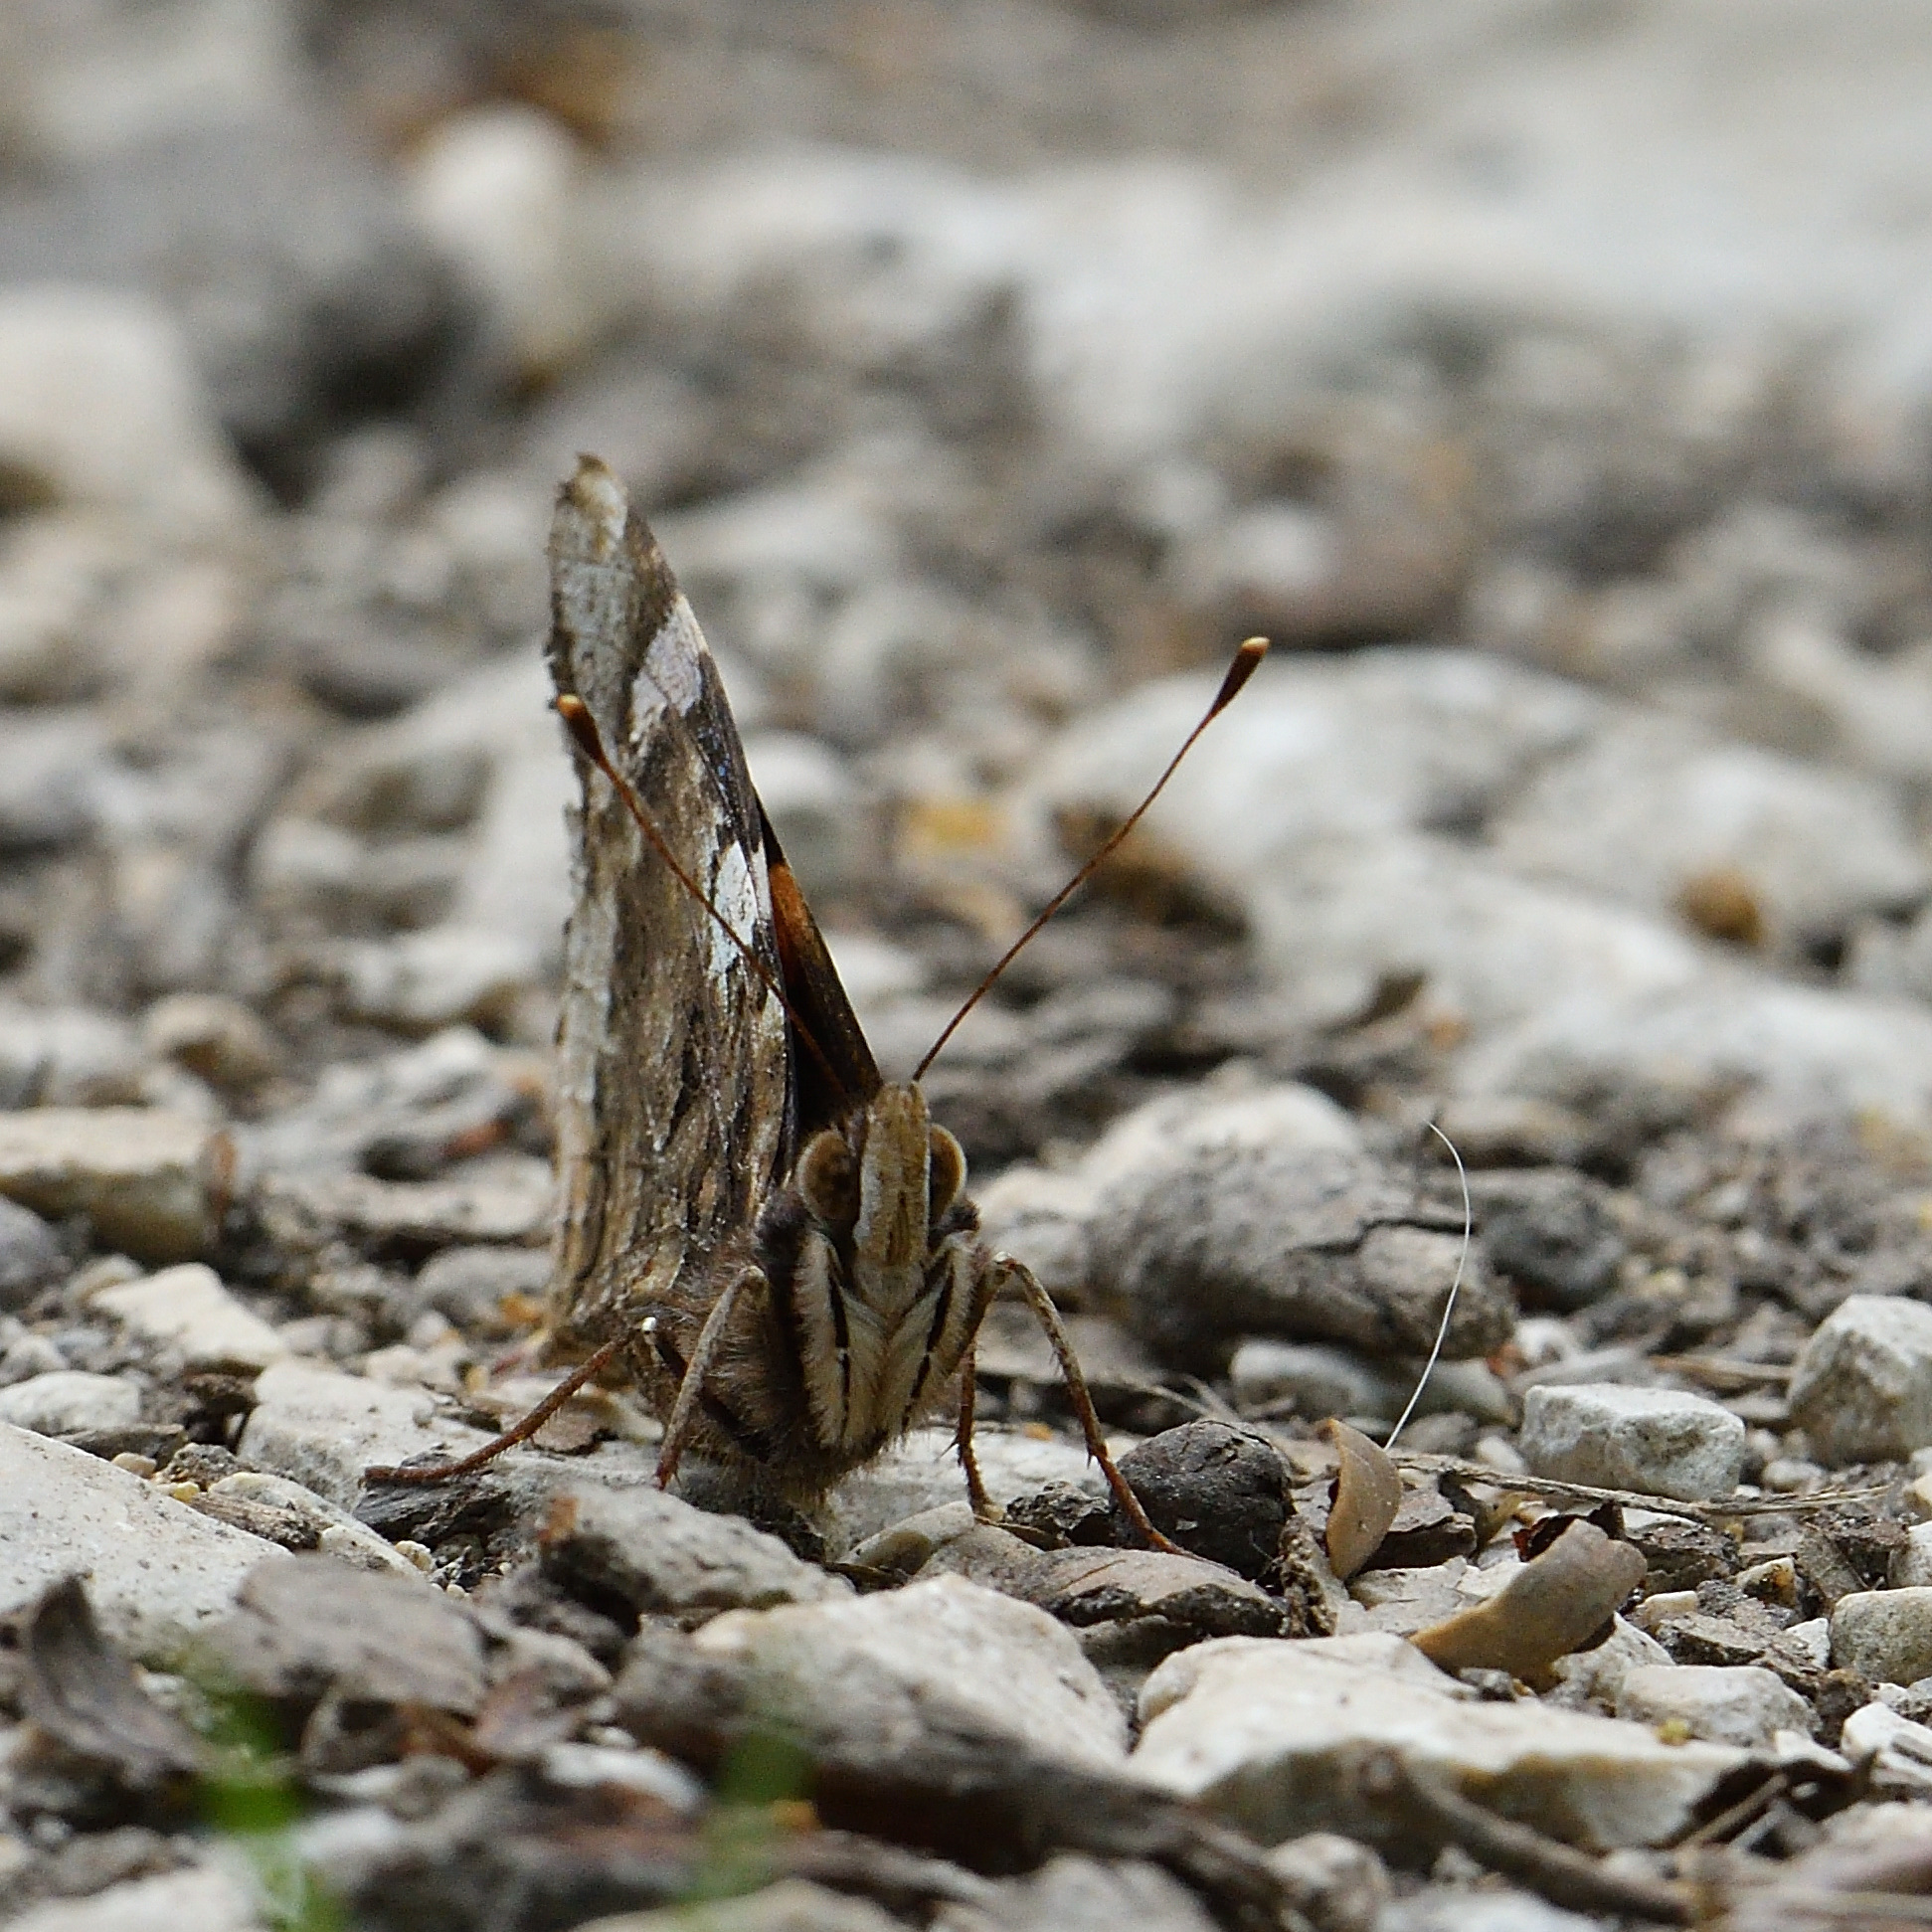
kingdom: Animalia
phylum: Arthropoda
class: Insecta
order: Lepidoptera
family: Nymphalidae
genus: Vanessa
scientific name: Vanessa atalanta
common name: Red admiral
